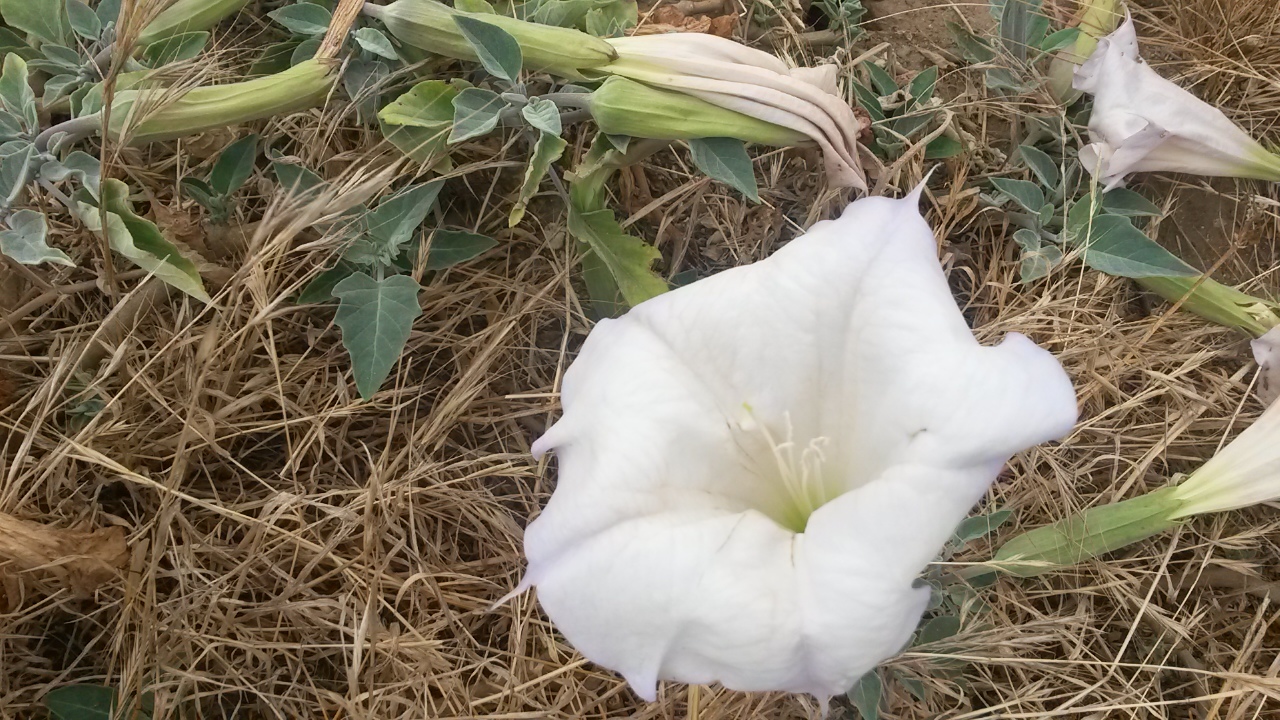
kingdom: Plantae
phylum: Tracheophyta
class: Magnoliopsida
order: Solanales
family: Solanaceae
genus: Datura
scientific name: Datura wrightii
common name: Sacred thorn-apple
